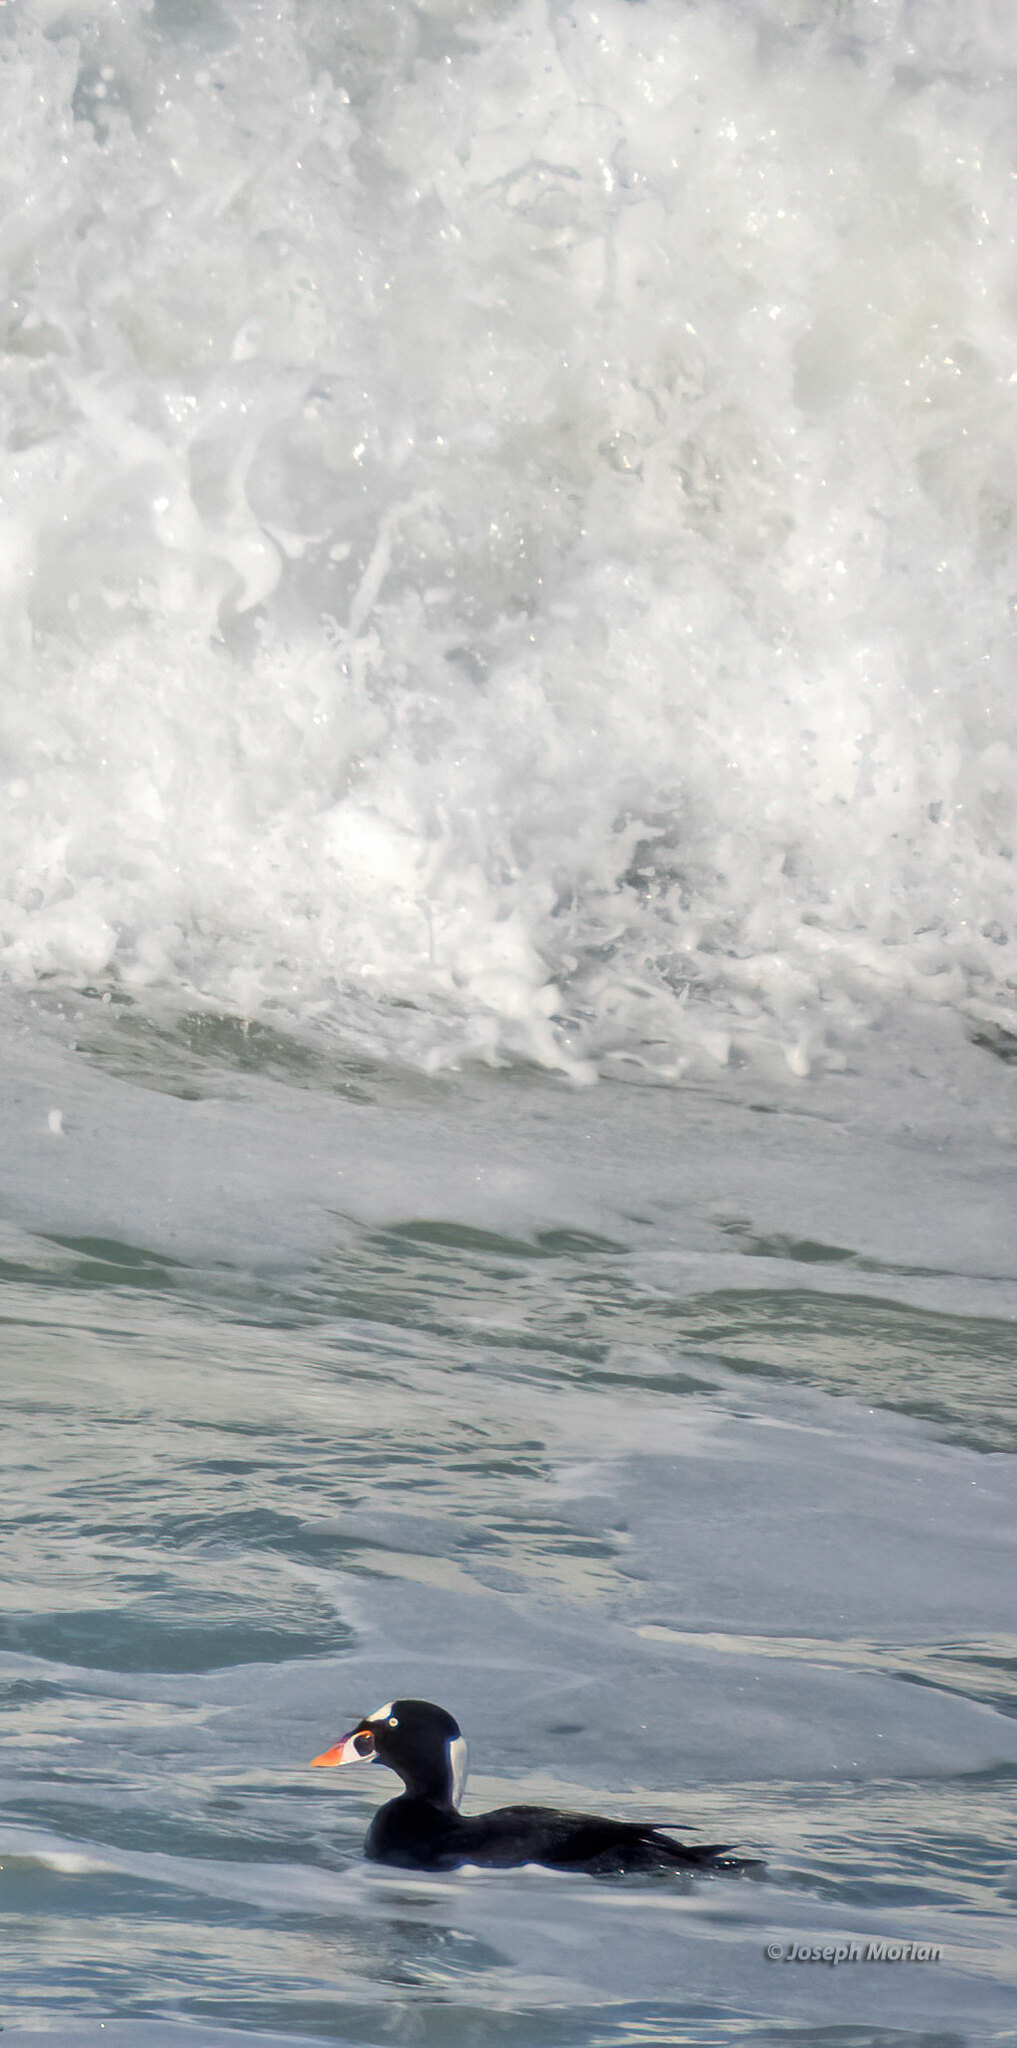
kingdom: Animalia
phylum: Chordata
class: Aves
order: Anseriformes
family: Anatidae
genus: Melanitta
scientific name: Melanitta perspicillata
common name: Surf scoter
